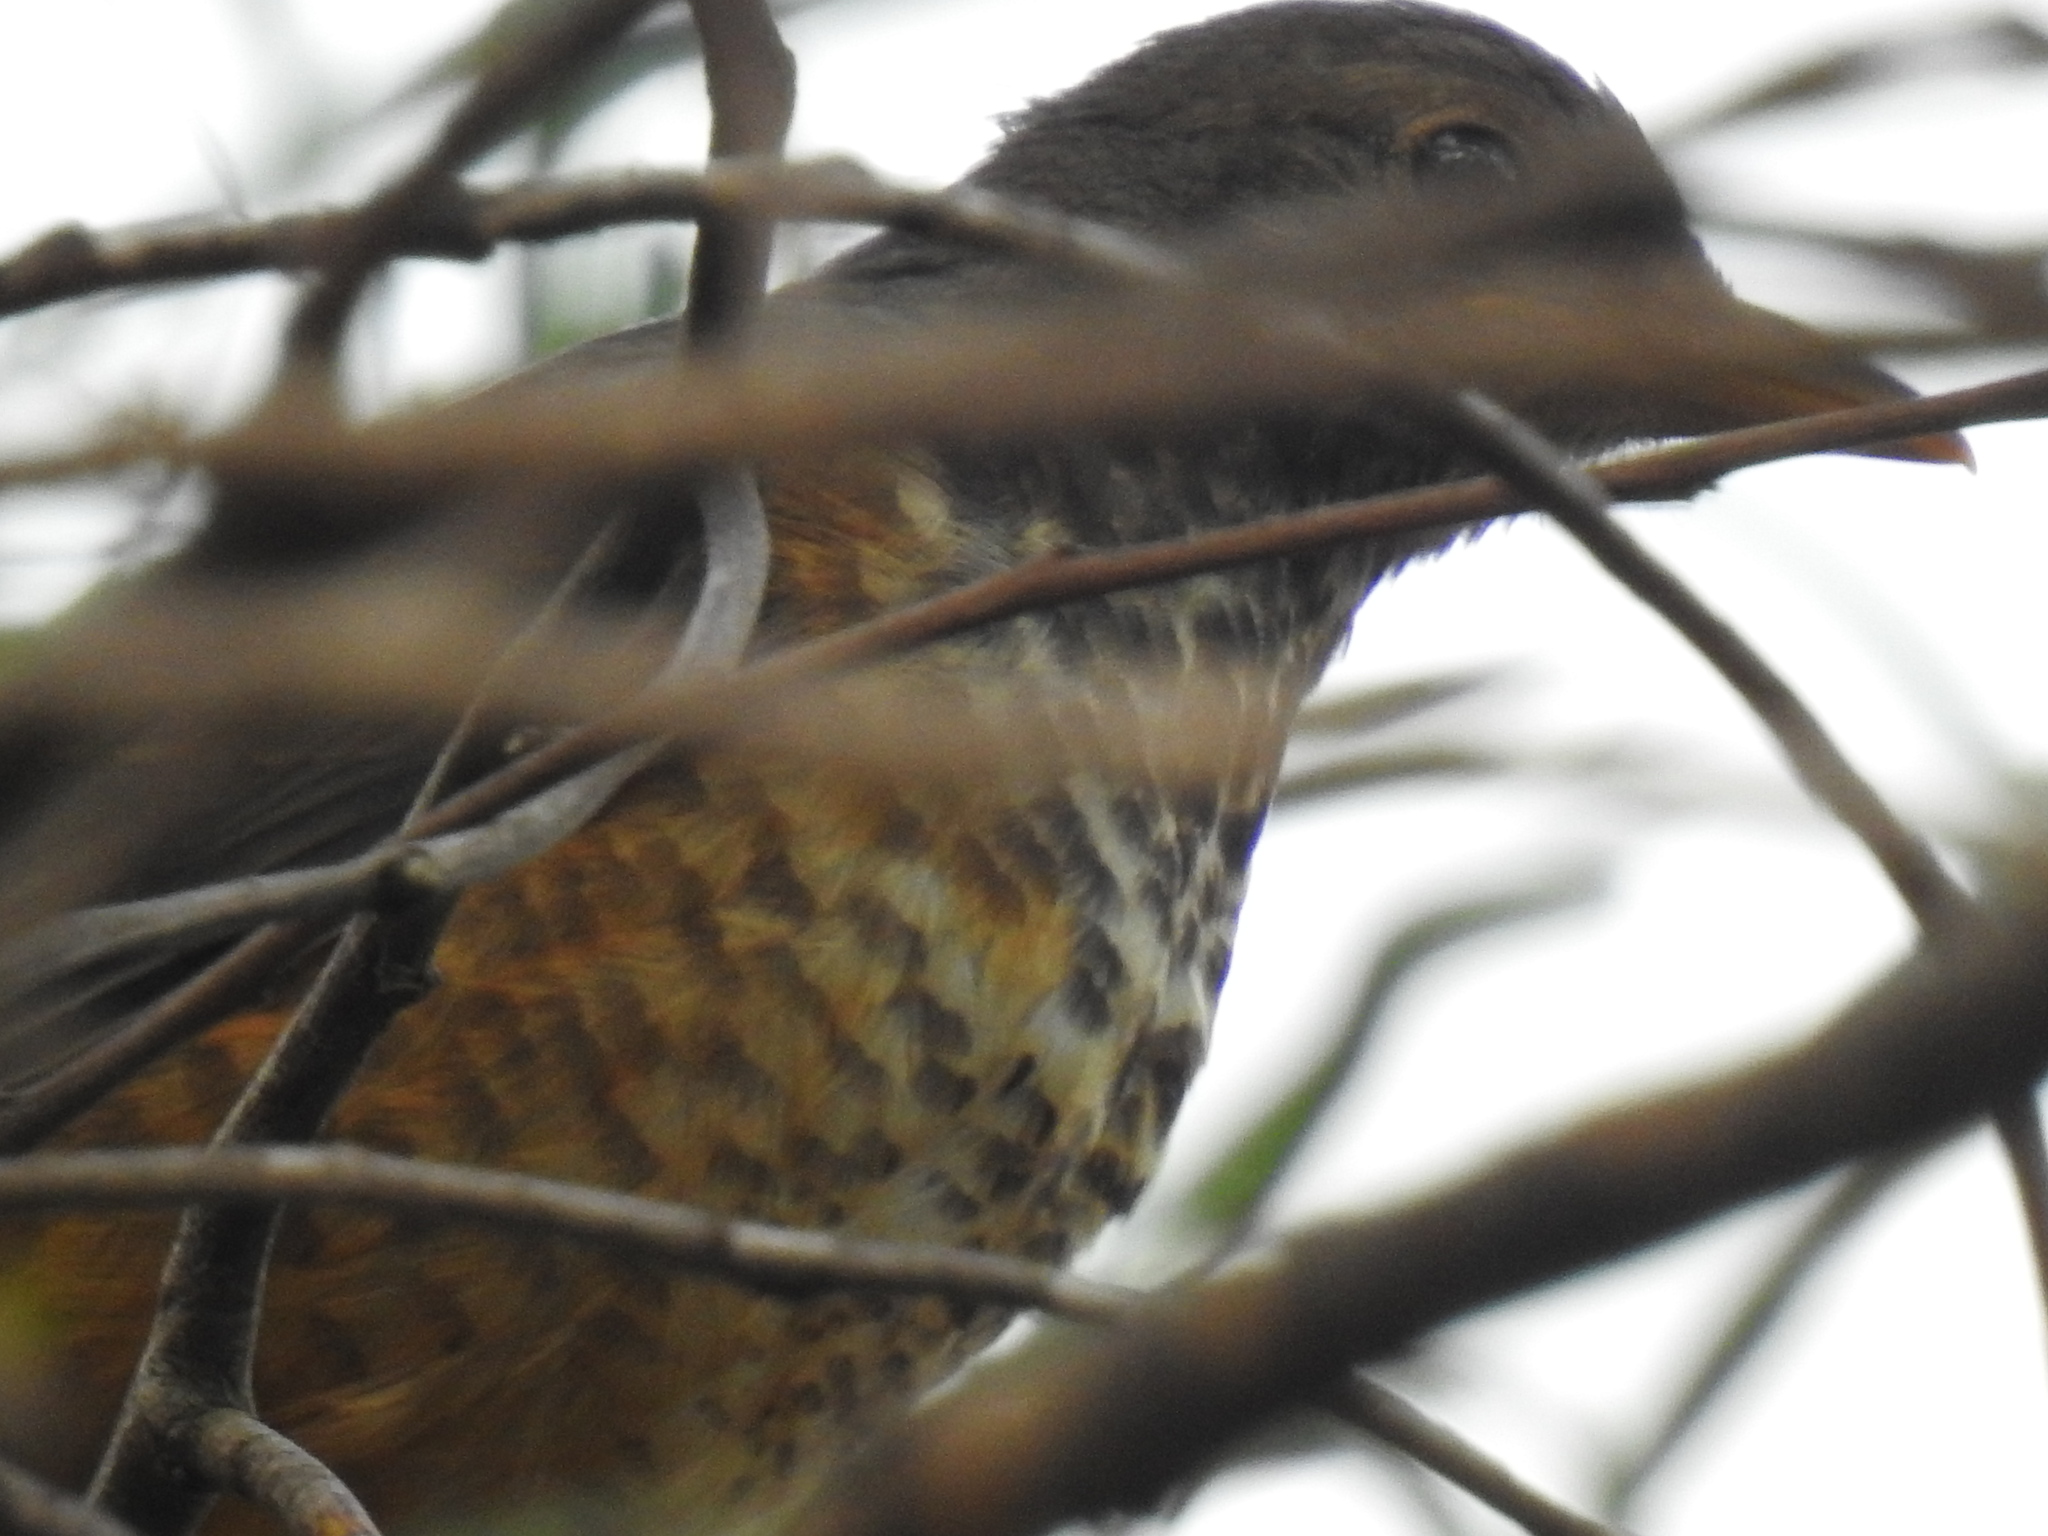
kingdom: Animalia
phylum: Chordata
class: Aves
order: Passeriformes
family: Turdidae
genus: Turdus
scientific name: Turdus olivaceus
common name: Olive thrush
